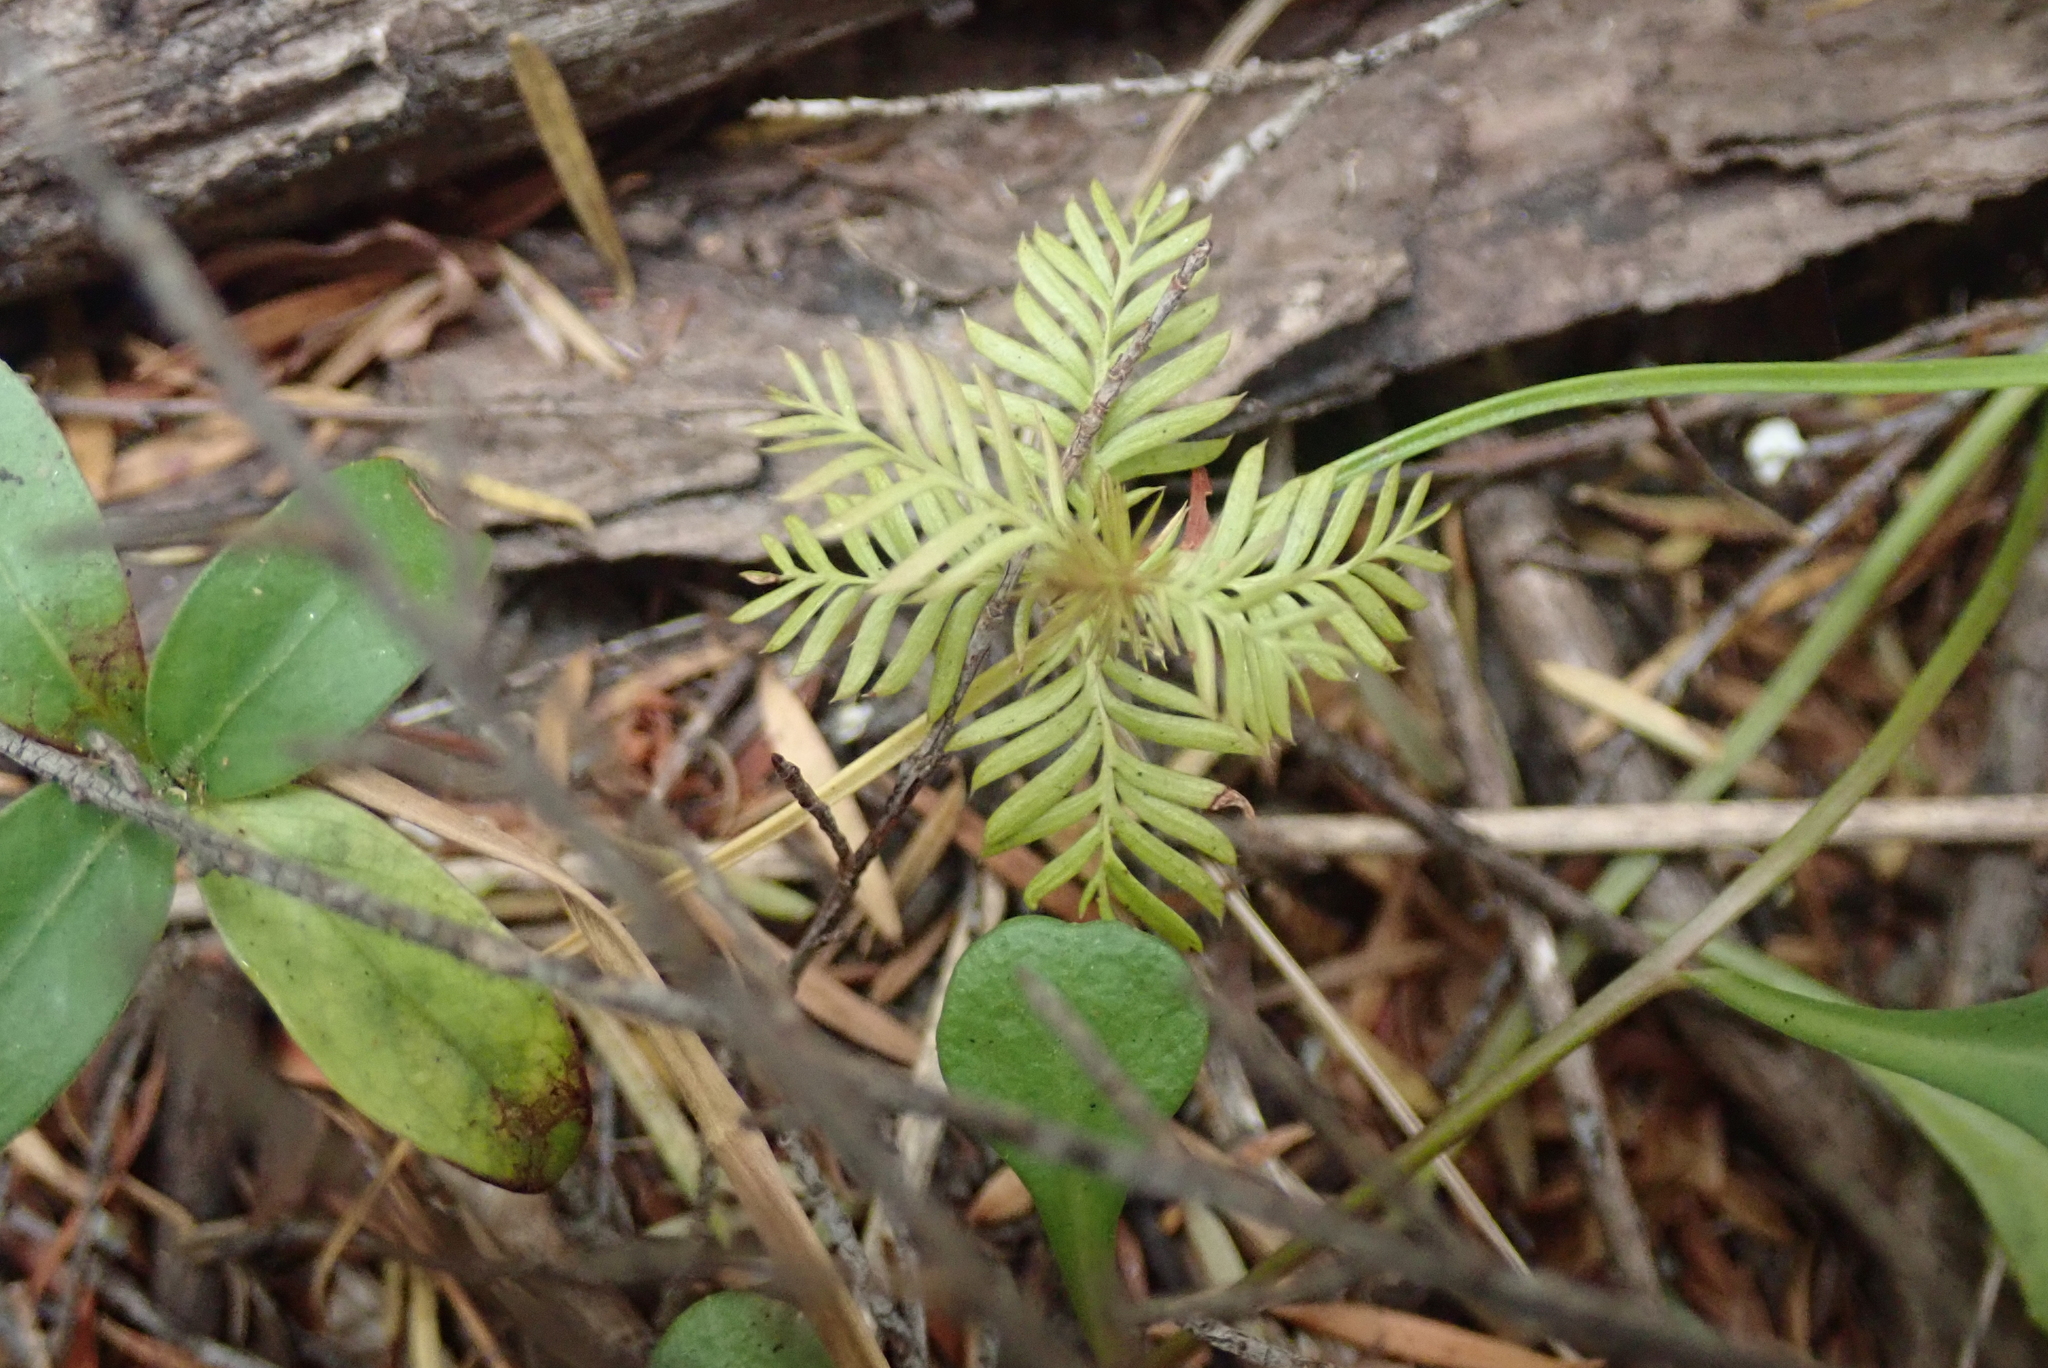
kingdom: Plantae
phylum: Tracheophyta
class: Pinopsida
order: Pinales
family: Podocarpaceae
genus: Dacrycarpus
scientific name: Dacrycarpus dacrydioides
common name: White pine
